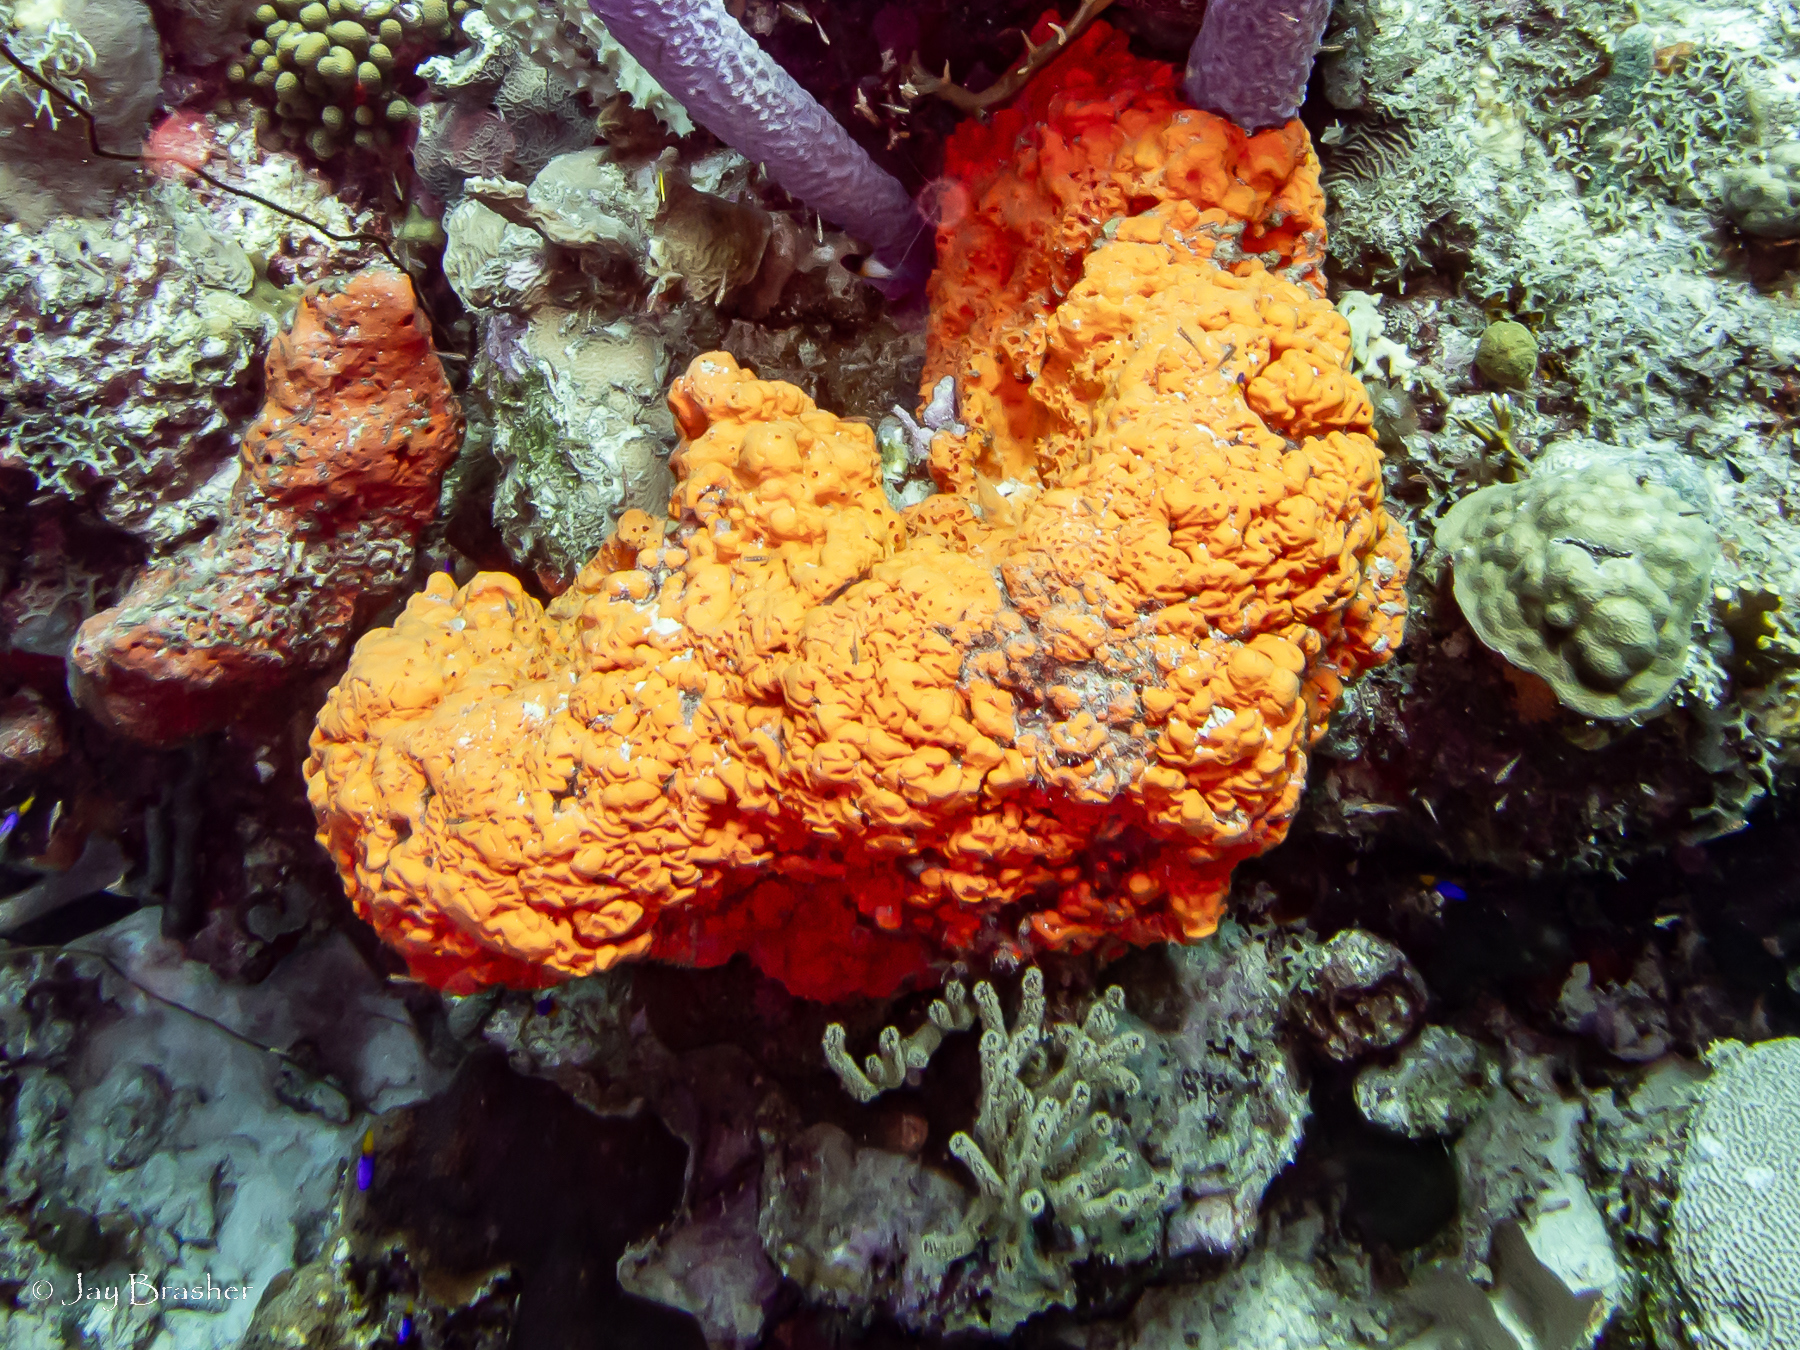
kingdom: Animalia
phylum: Cnidaria
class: Anthozoa
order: Scleractinia
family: Poritidae
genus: Porites
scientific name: Porites astreoides
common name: Mustard hill coral
